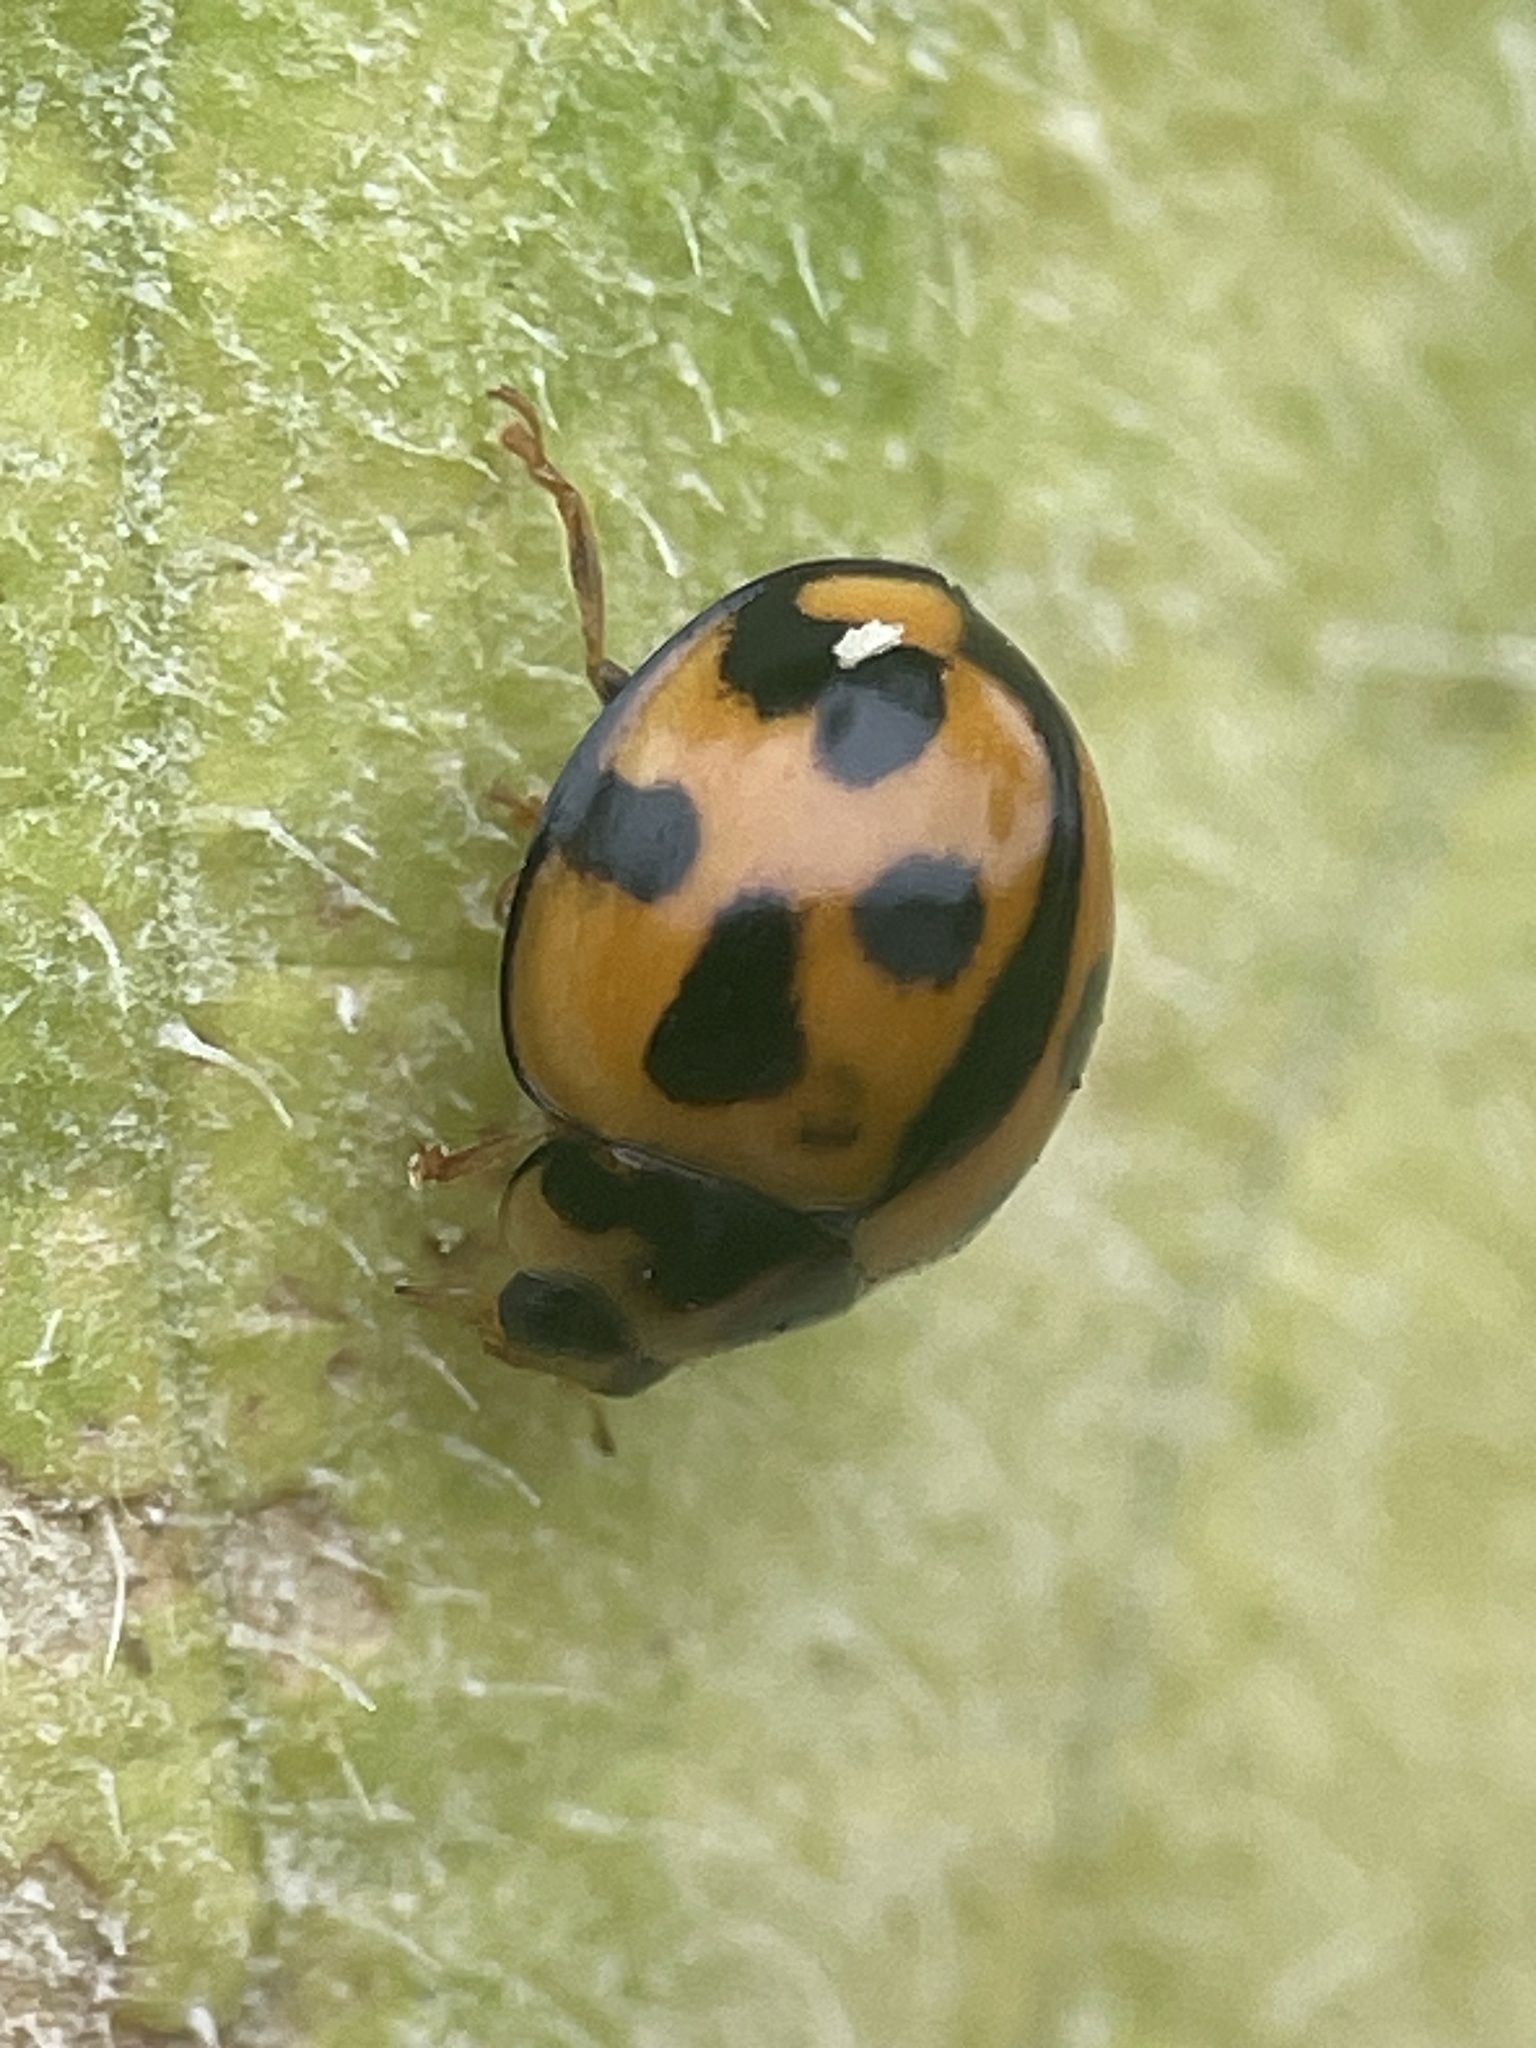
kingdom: Animalia
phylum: Arthropoda
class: Insecta
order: Coleoptera
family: Coccinellidae
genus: Coelophora
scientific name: Coelophora inaequalis
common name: Common australian lady beetle
